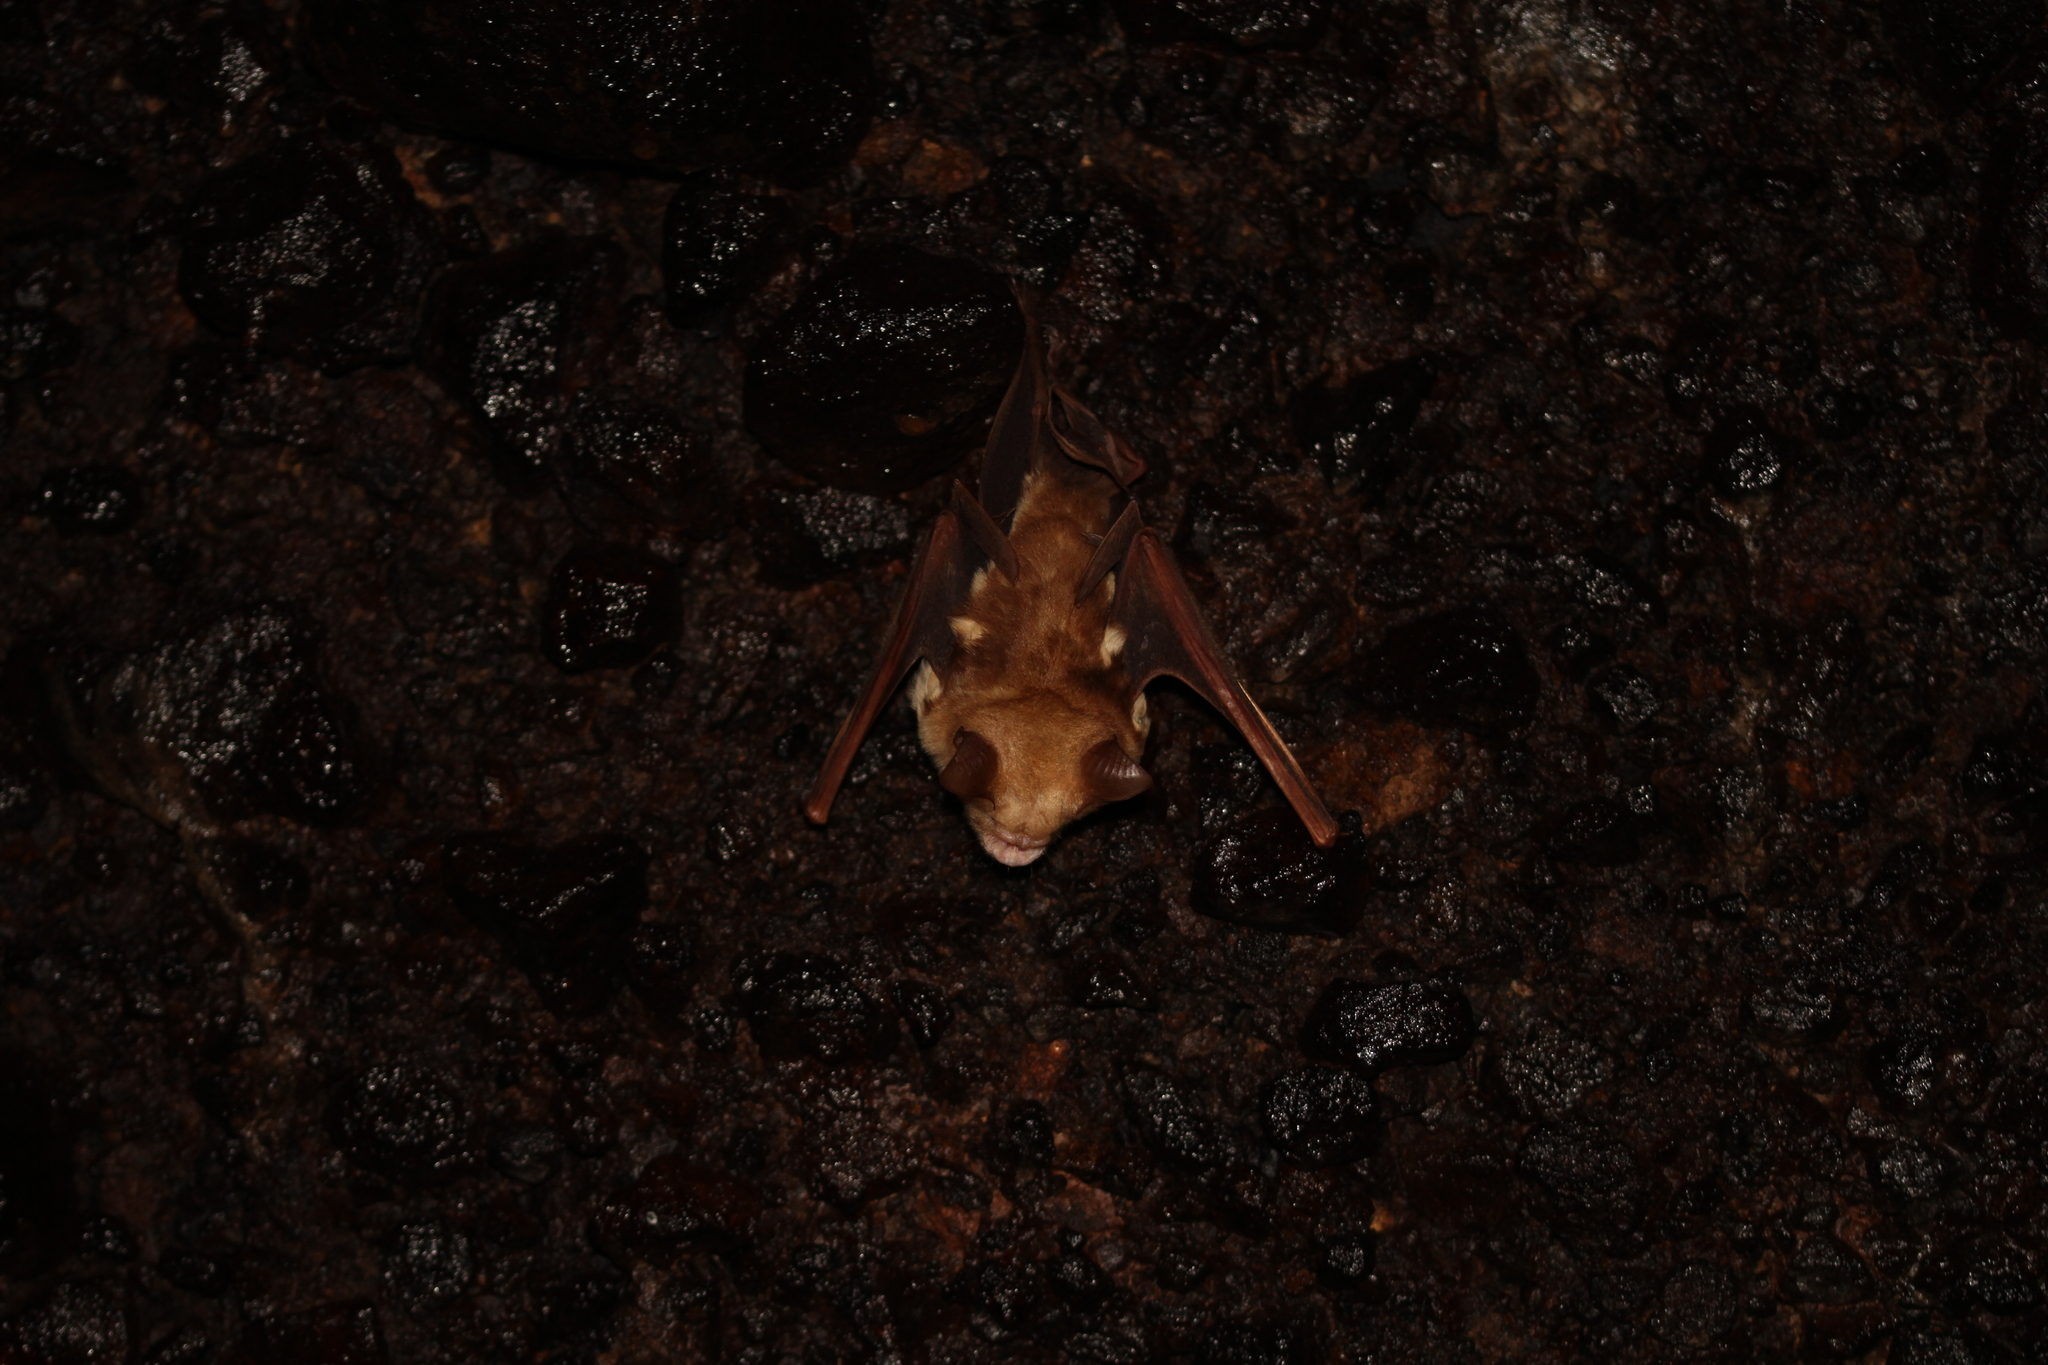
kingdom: Animalia
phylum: Chordata
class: Mammalia
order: Chiroptera
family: Hipposideridae
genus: Hipposideros
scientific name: Hipposideros diadema
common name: Diadem leaf-nosed bat
